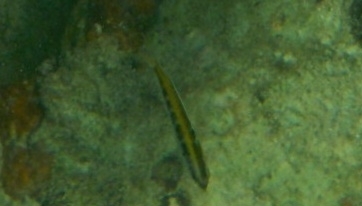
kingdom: Animalia
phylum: Chordata
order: Perciformes
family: Labridae
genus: Thalassoma
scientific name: Thalassoma bifasciatum
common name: Bluehead wrasse
